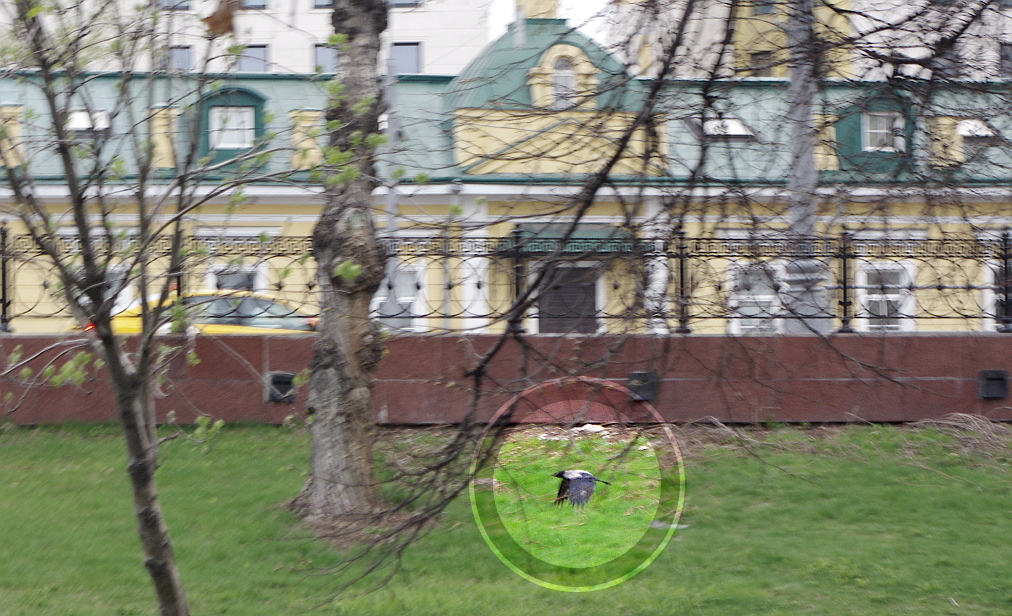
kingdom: Animalia
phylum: Chordata
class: Aves
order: Passeriformes
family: Corvidae
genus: Corvus
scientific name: Corvus cornix
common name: Hooded crow
